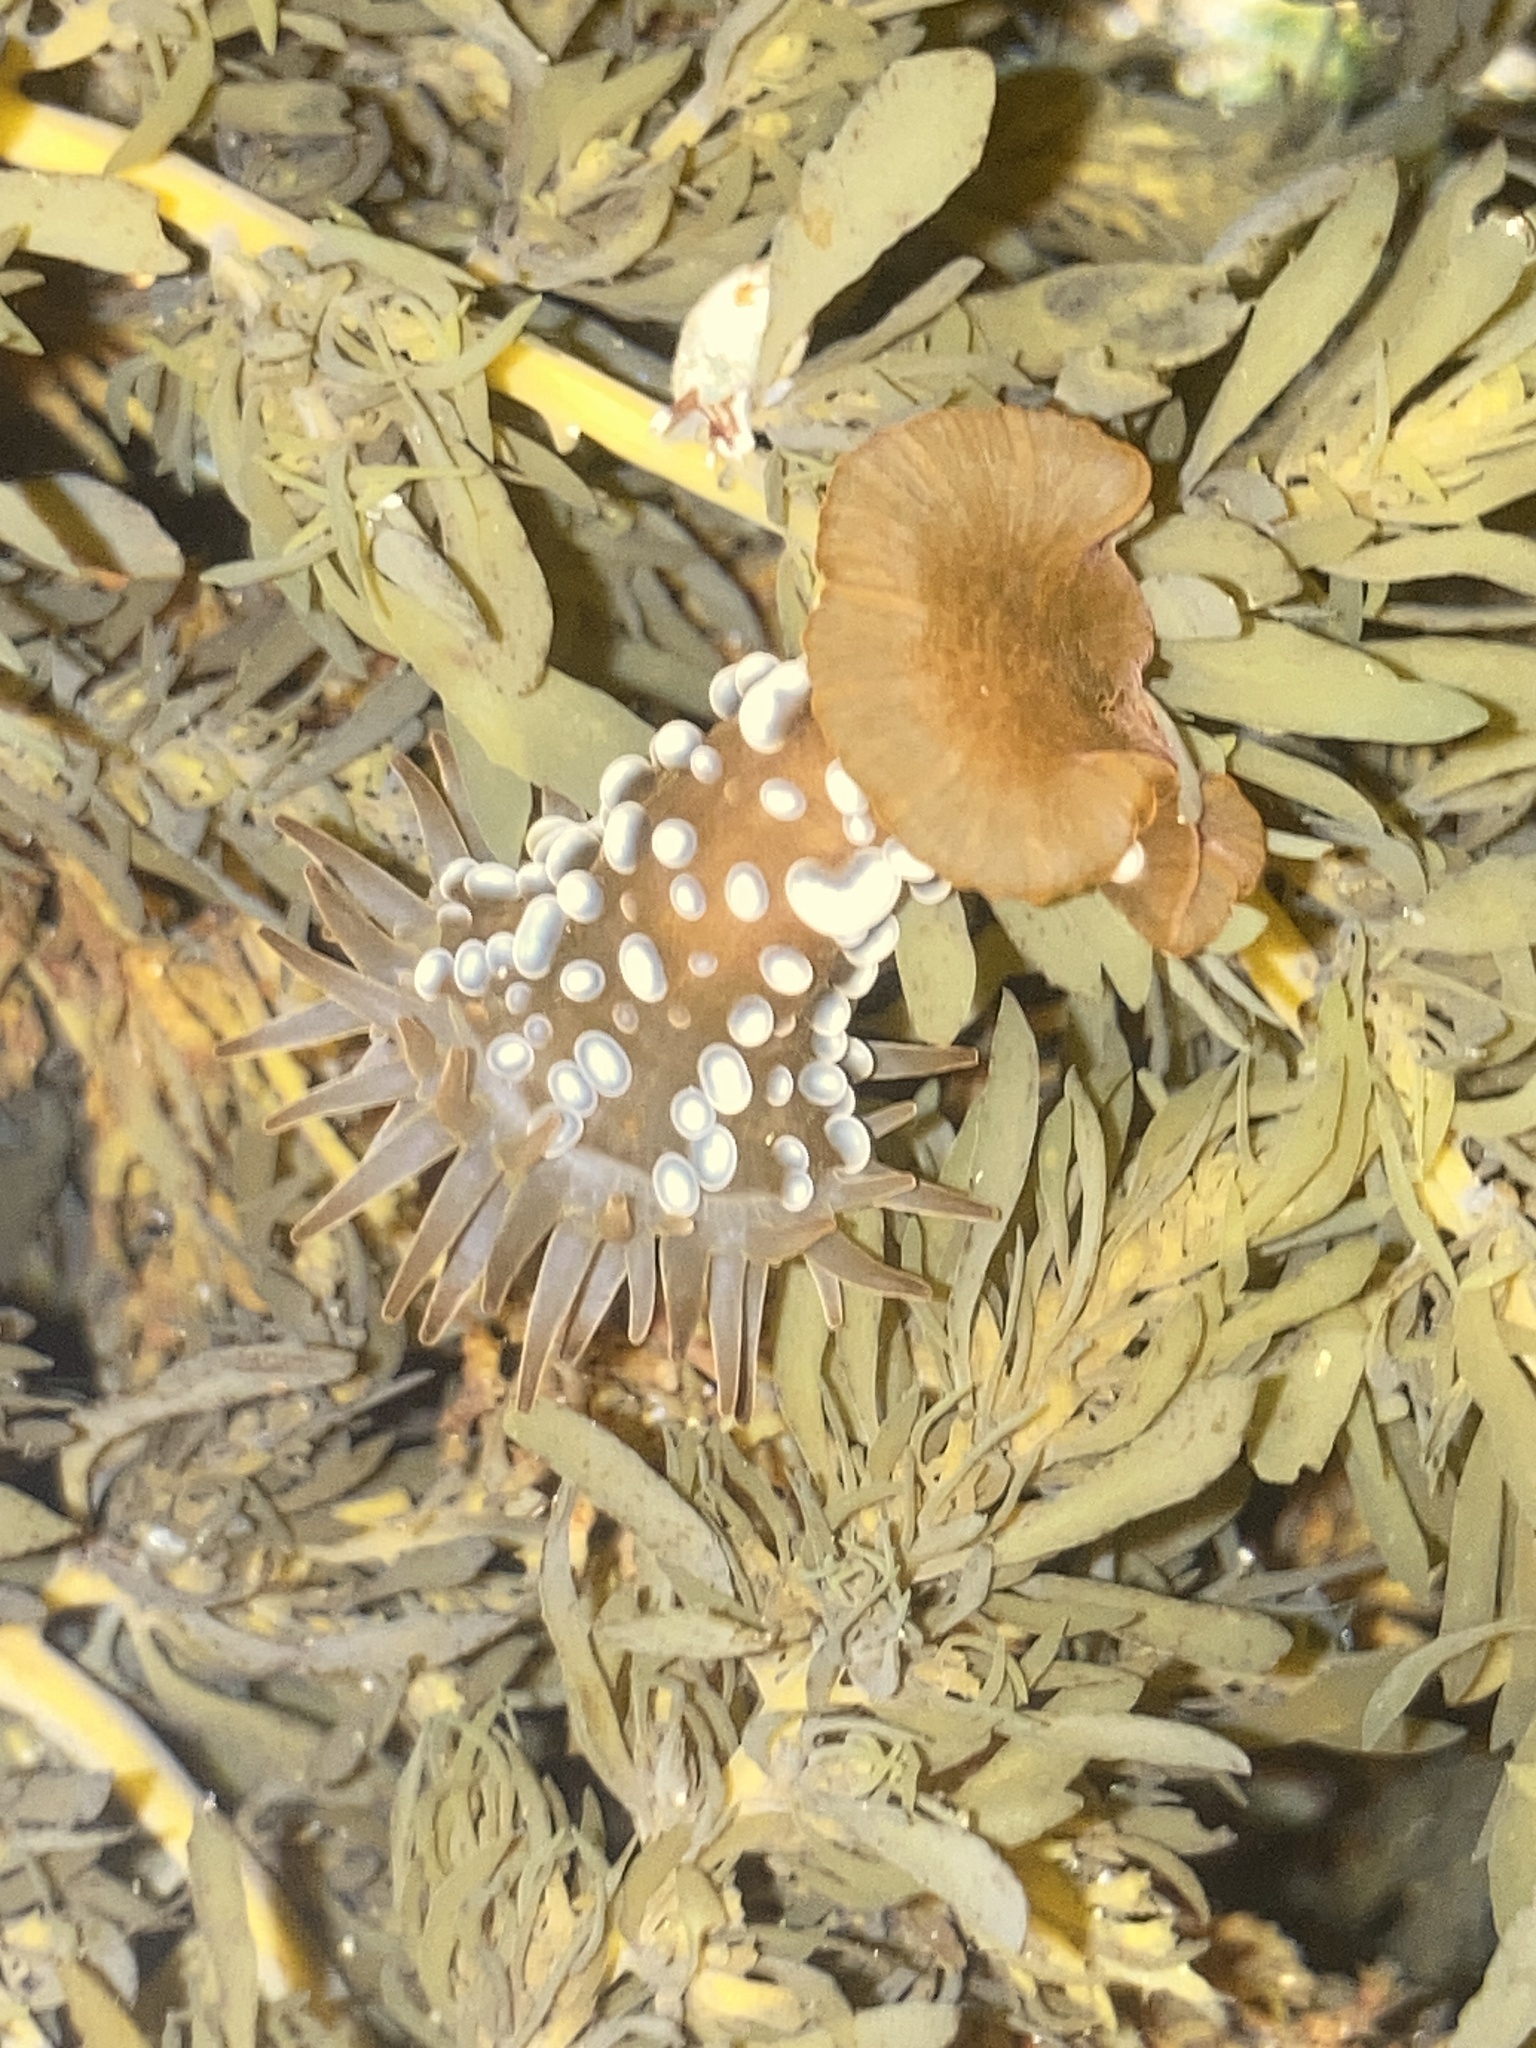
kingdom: Animalia
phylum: Cnidaria
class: Anthozoa
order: Actiniaria
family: Actiniidae
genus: Phlyctenactis
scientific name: Phlyctenactis tuberculosa
